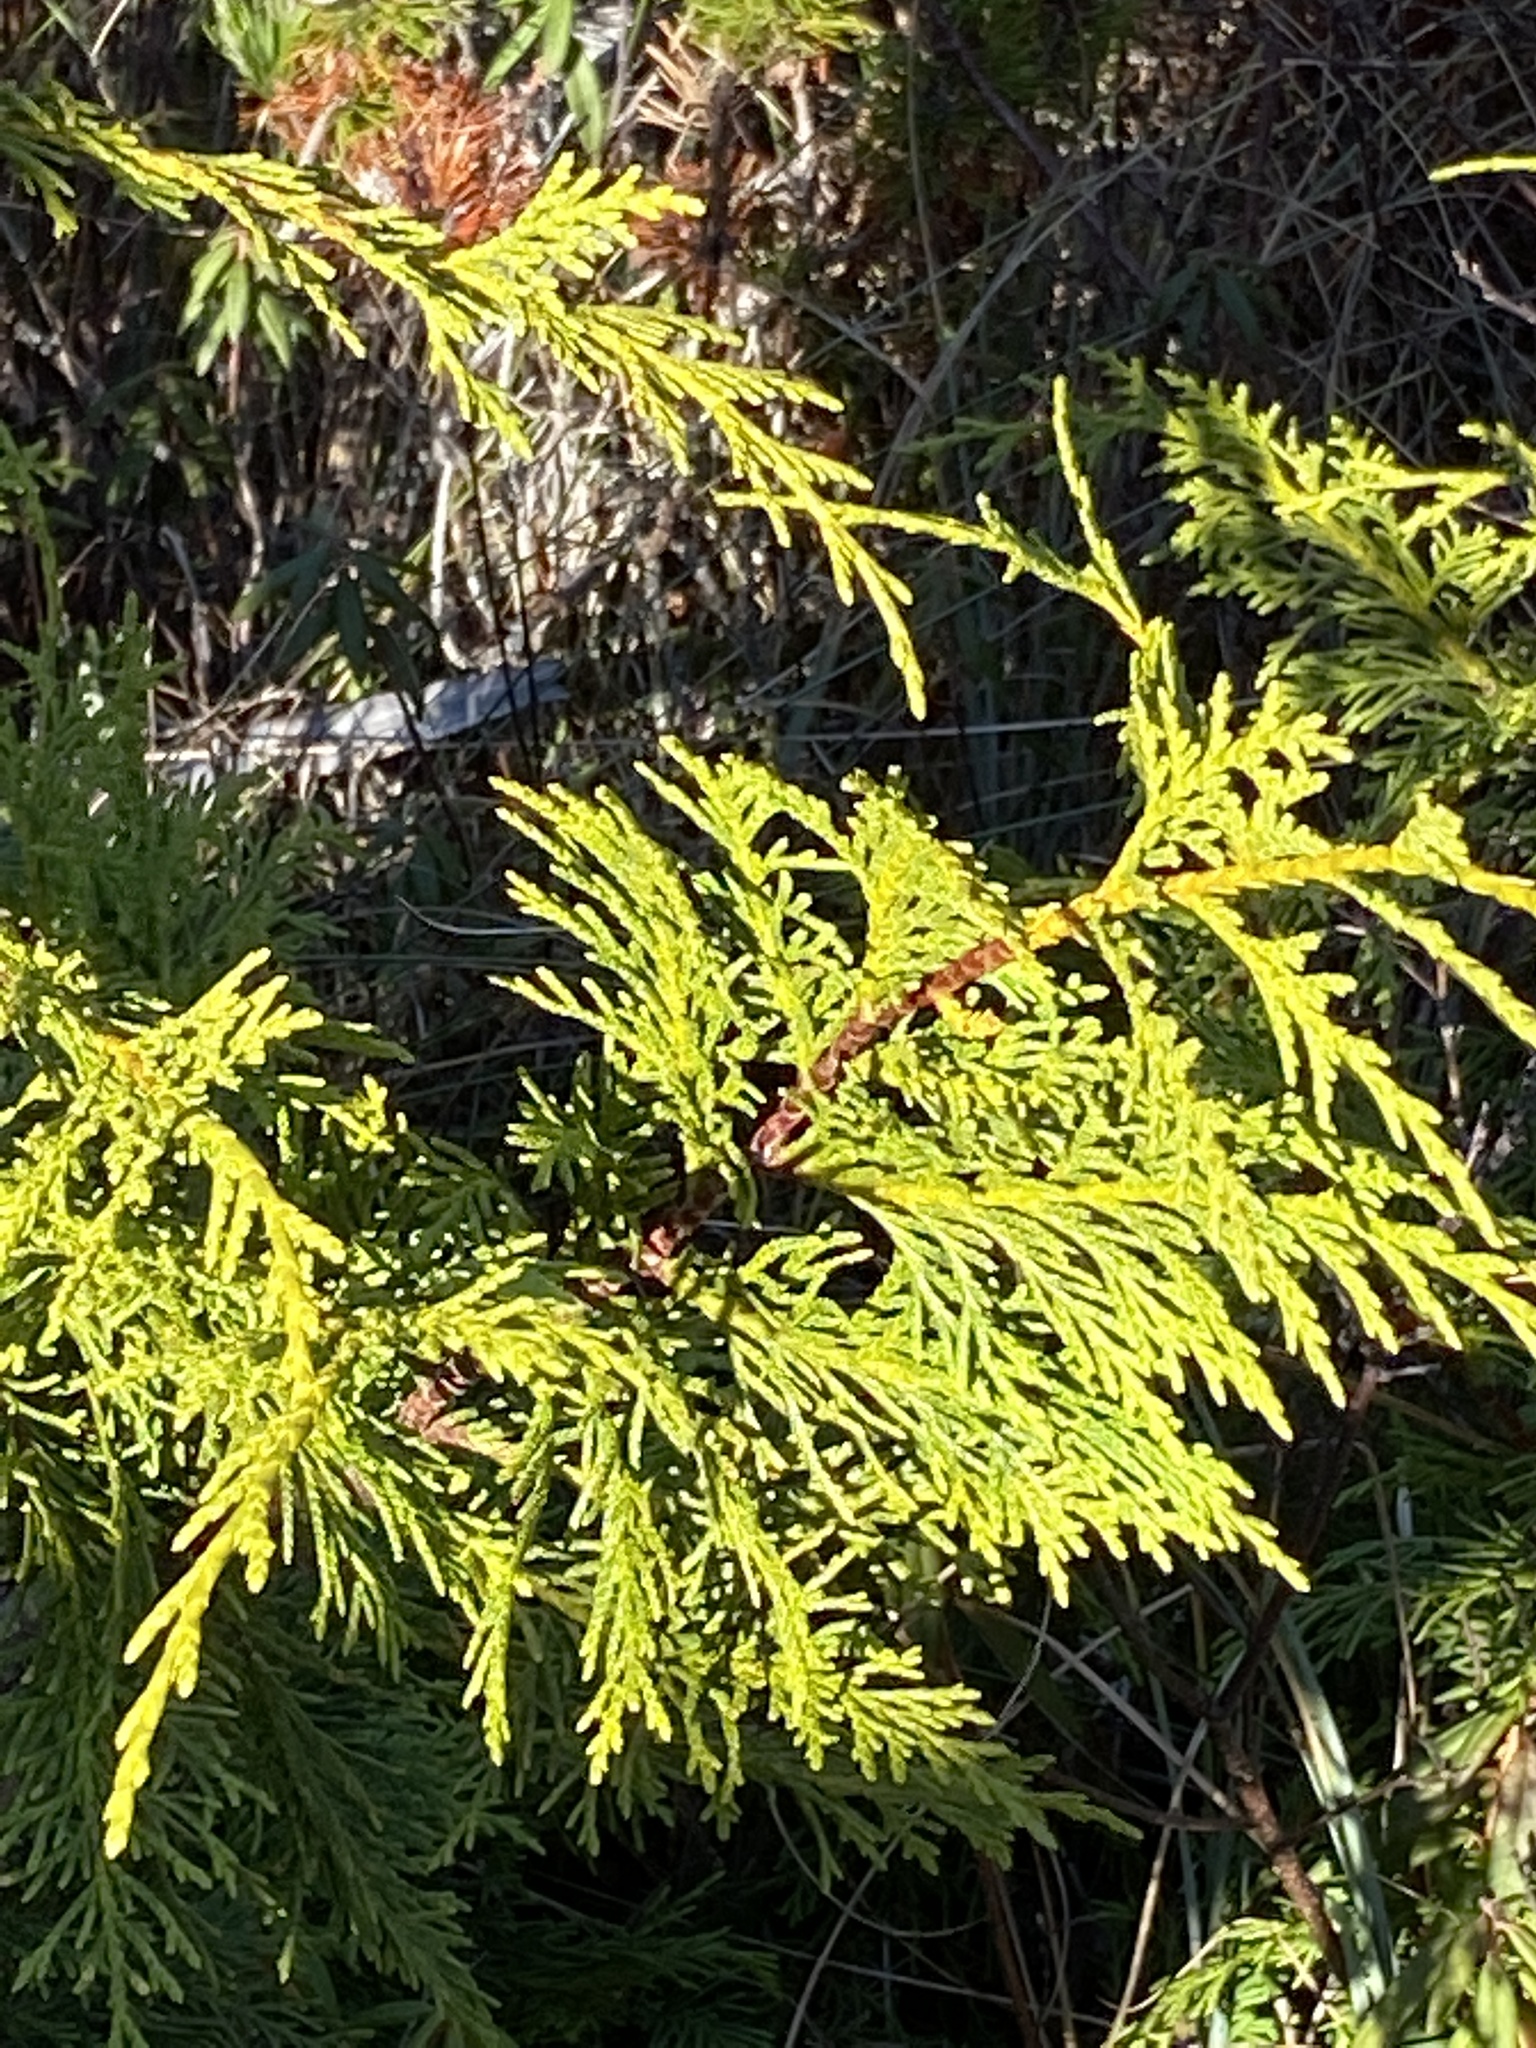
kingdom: Plantae
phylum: Tracheophyta
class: Pinopsida
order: Pinales
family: Cupressaceae
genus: Thuja
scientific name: Thuja plicata
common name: Western red-cedar
